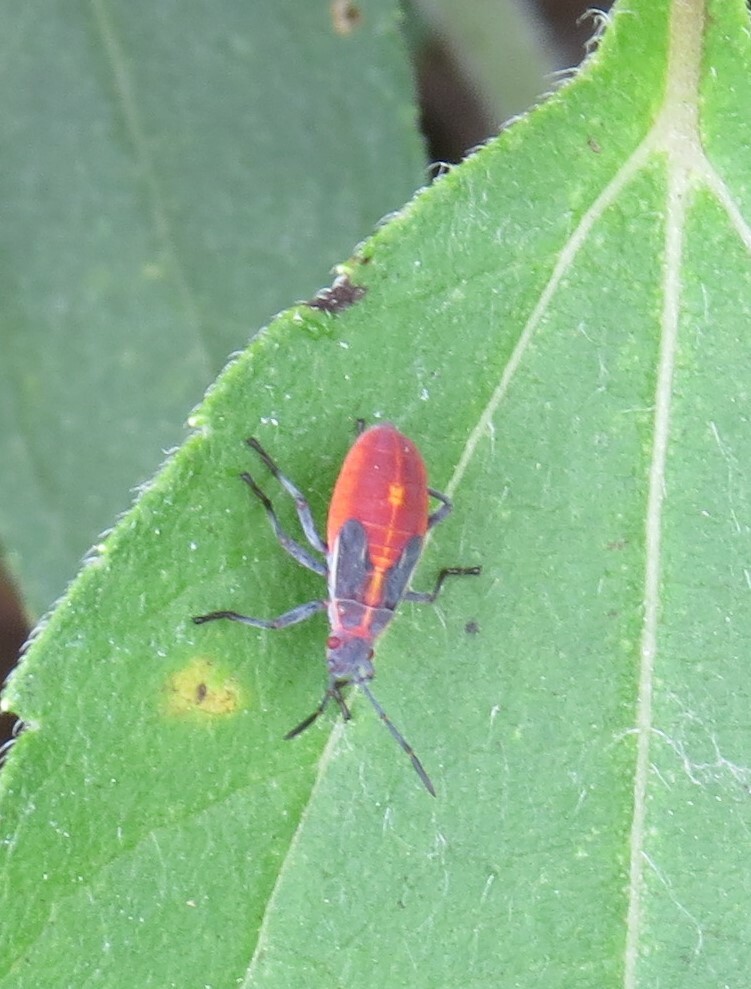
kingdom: Animalia
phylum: Arthropoda
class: Insecta
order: Hemiptera
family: Rhopalidae
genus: Boisea
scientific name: Boisea trivittata
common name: Boxelder bug
